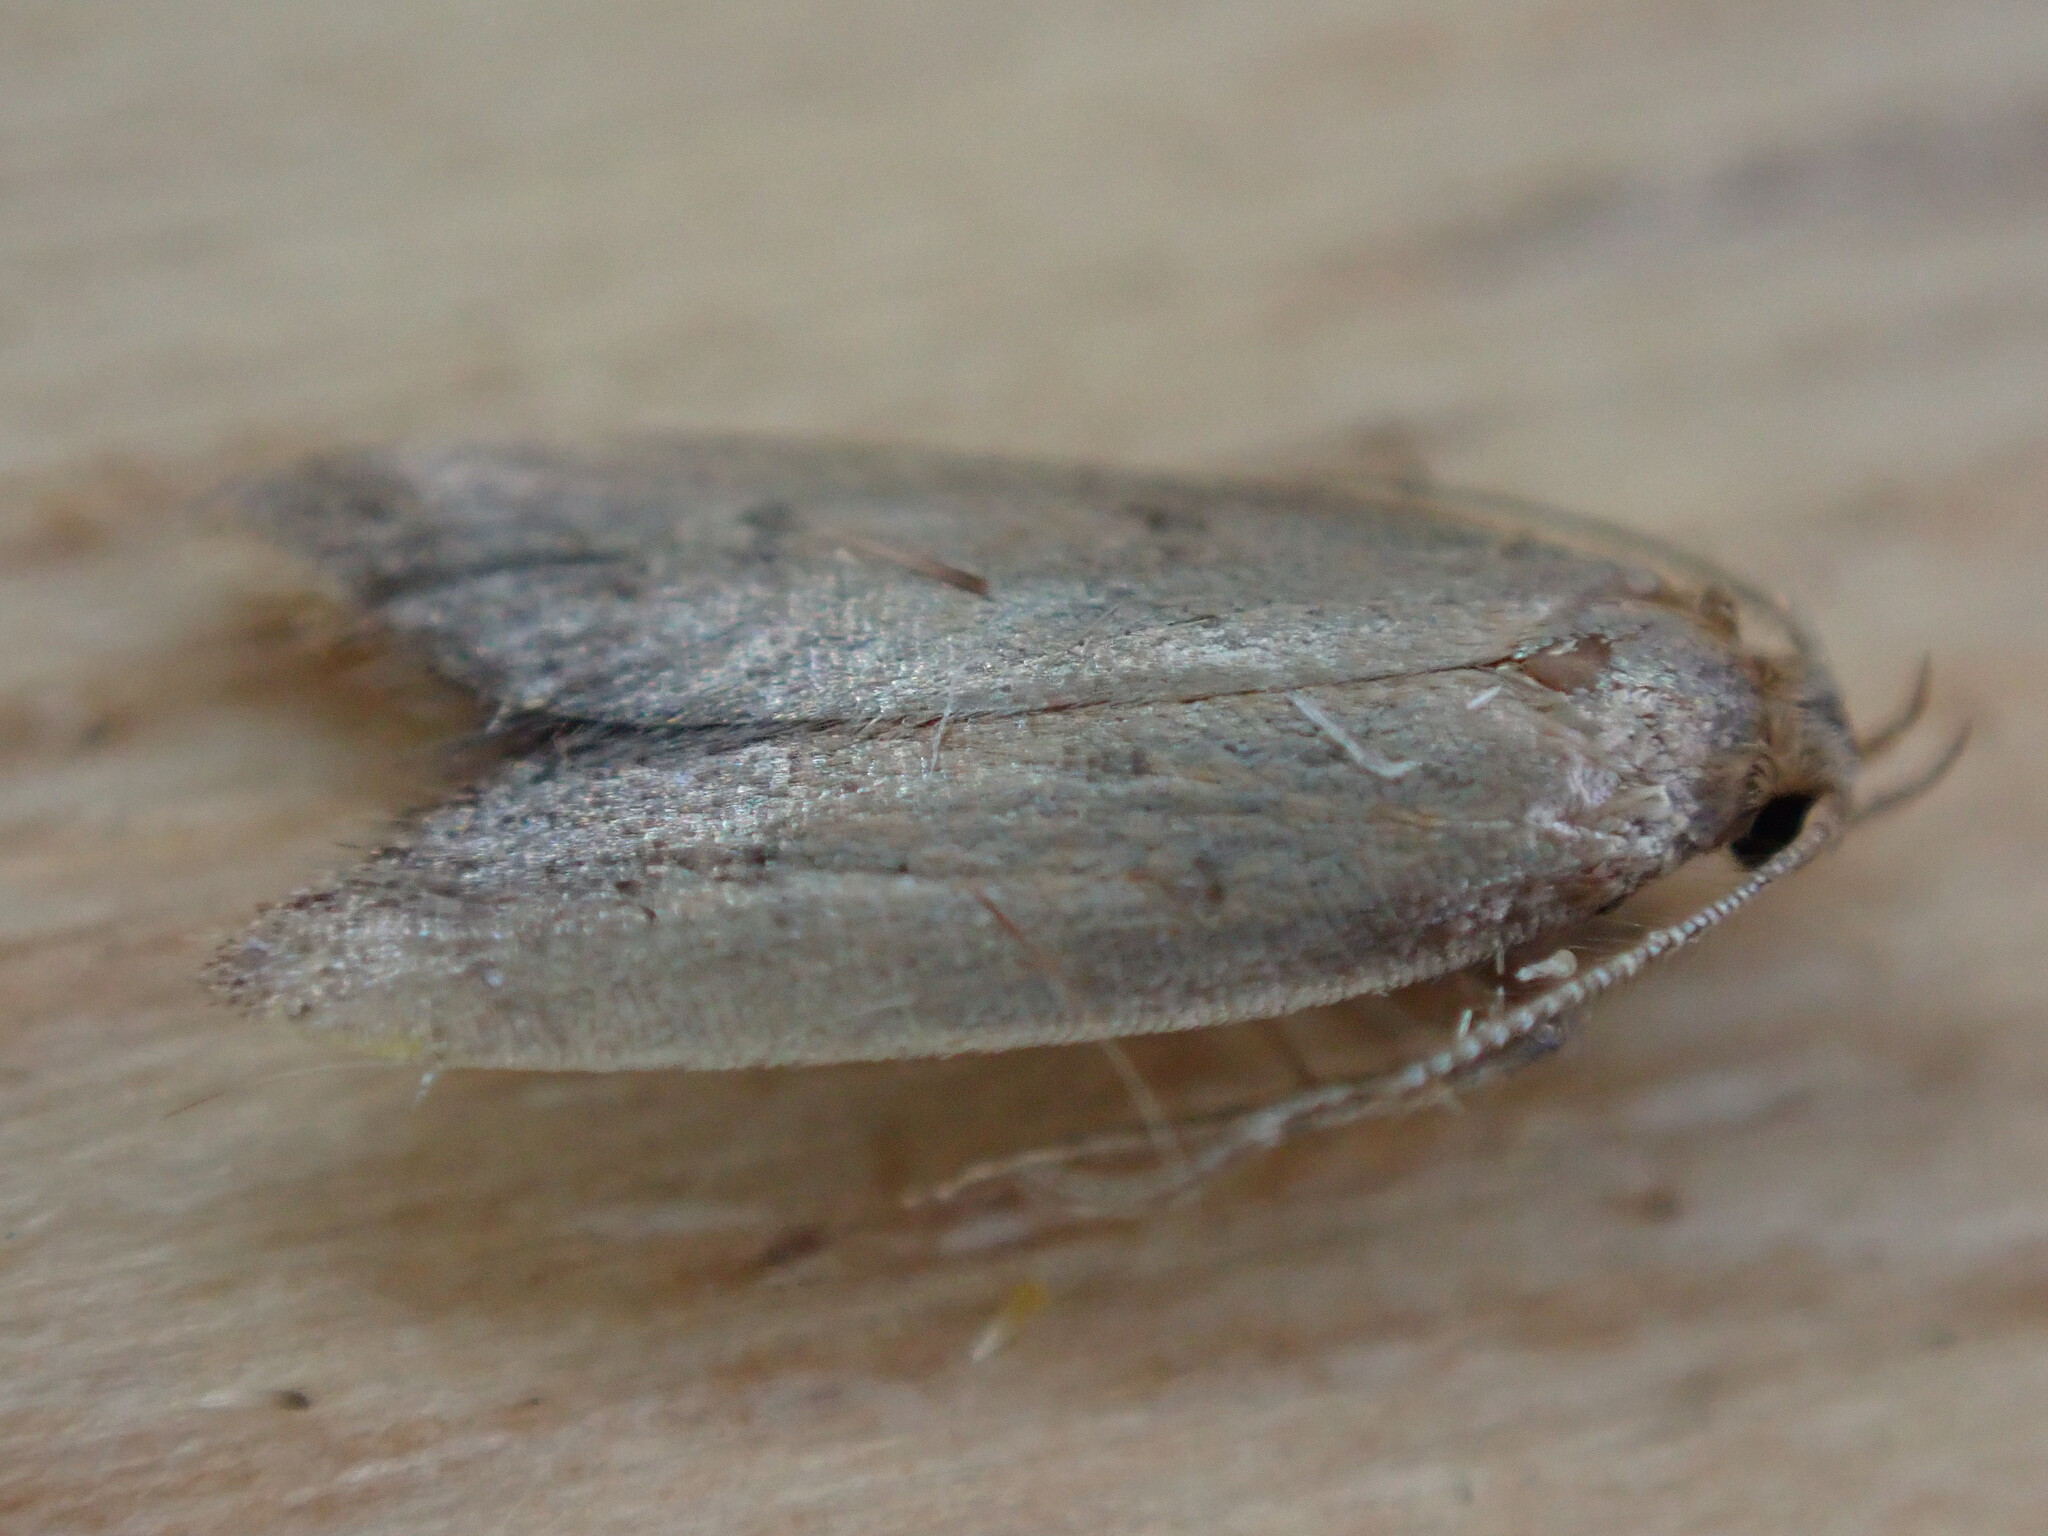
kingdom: Animalia
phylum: Arthropoda
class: Insecta
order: Lepidoptera
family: Oecophoridae
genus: Tachystola
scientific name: Tachystola acroxantha
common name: Ruddy streak
